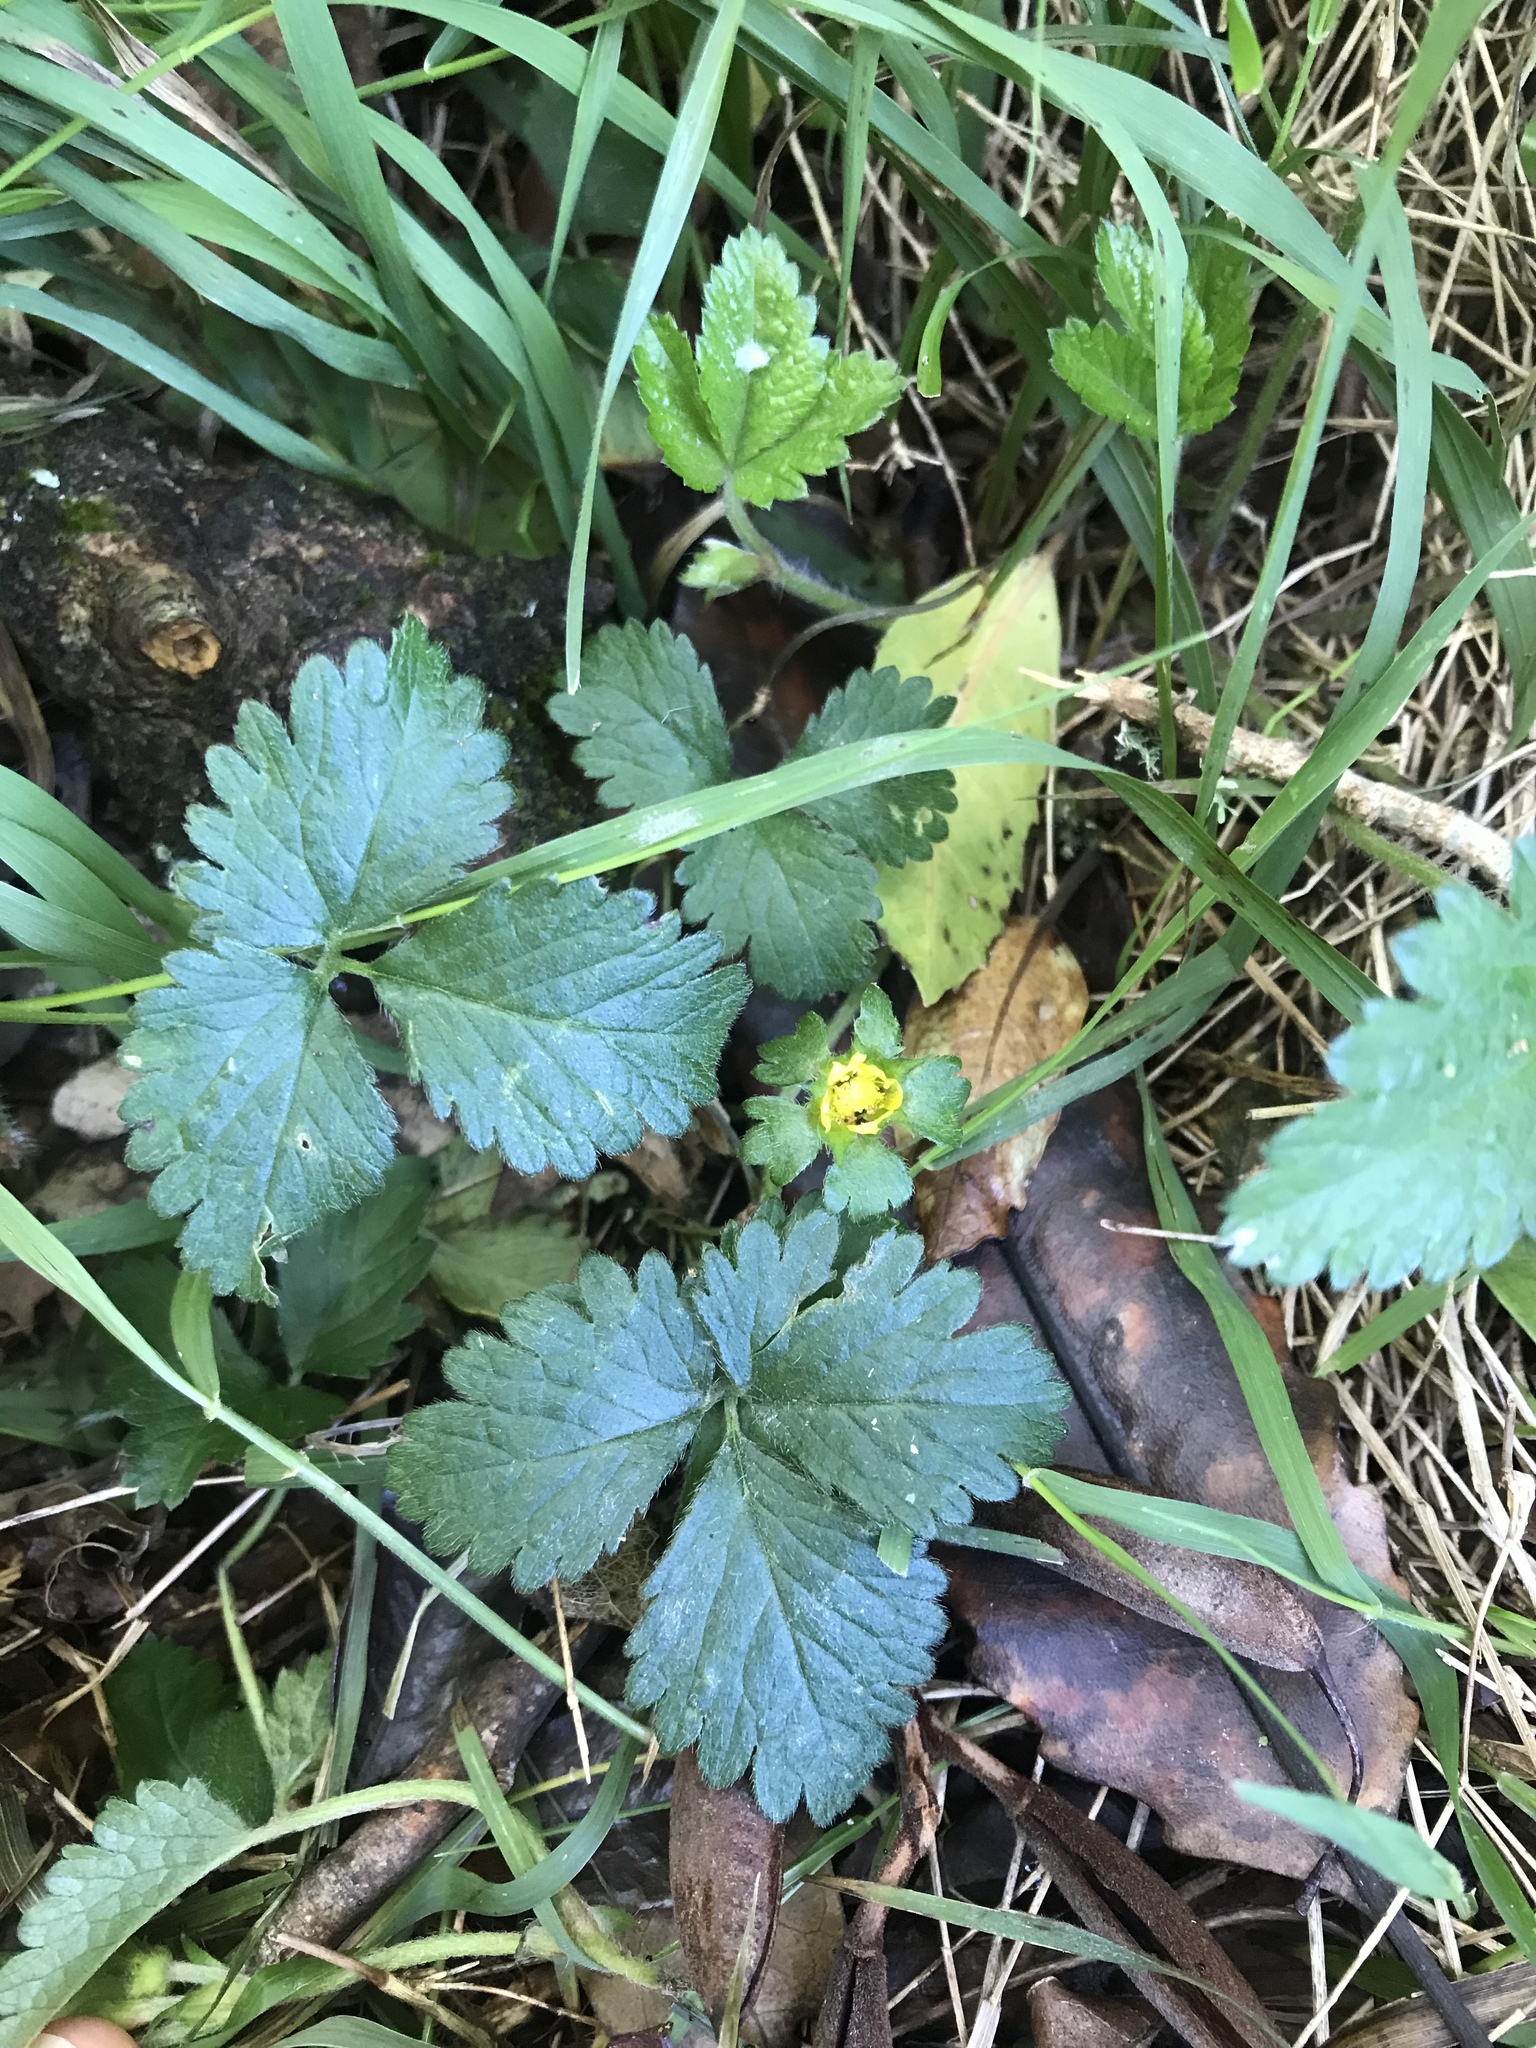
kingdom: Plantae
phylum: Tracheophyta
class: Magnoliopsida
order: Rosales
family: Rosaceae
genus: Potentilla
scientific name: Potentilla indica
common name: Yellow-flowered strawberry
